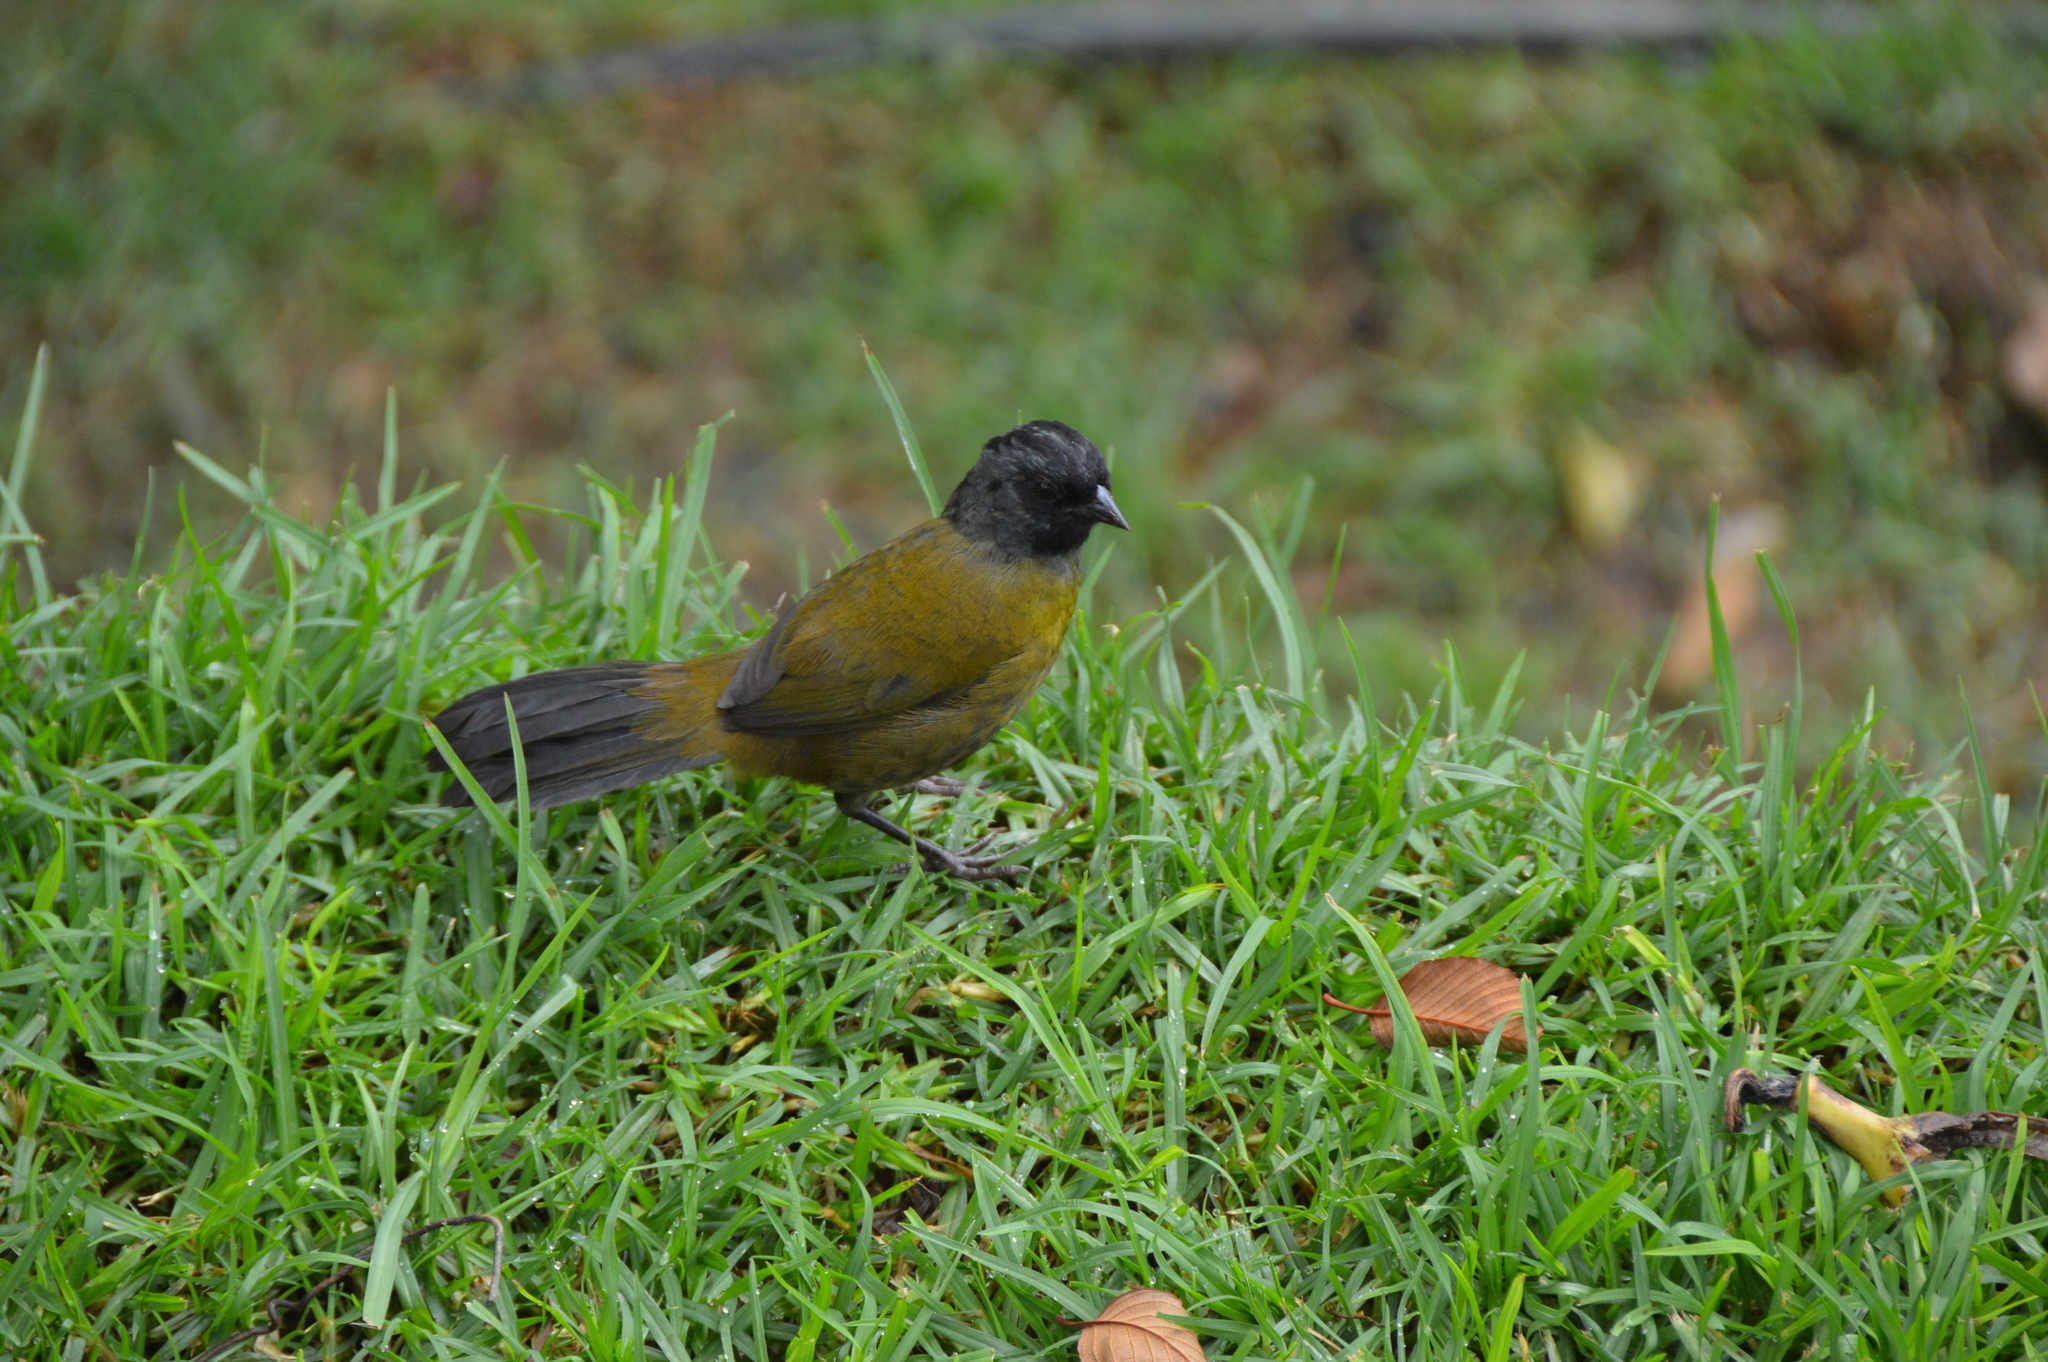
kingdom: Animalia
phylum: Chordata
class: Aves
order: Passeriformes
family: Passerellidae
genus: Pezopetes
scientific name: Pezopetes capitalis
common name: Large-footed finch
